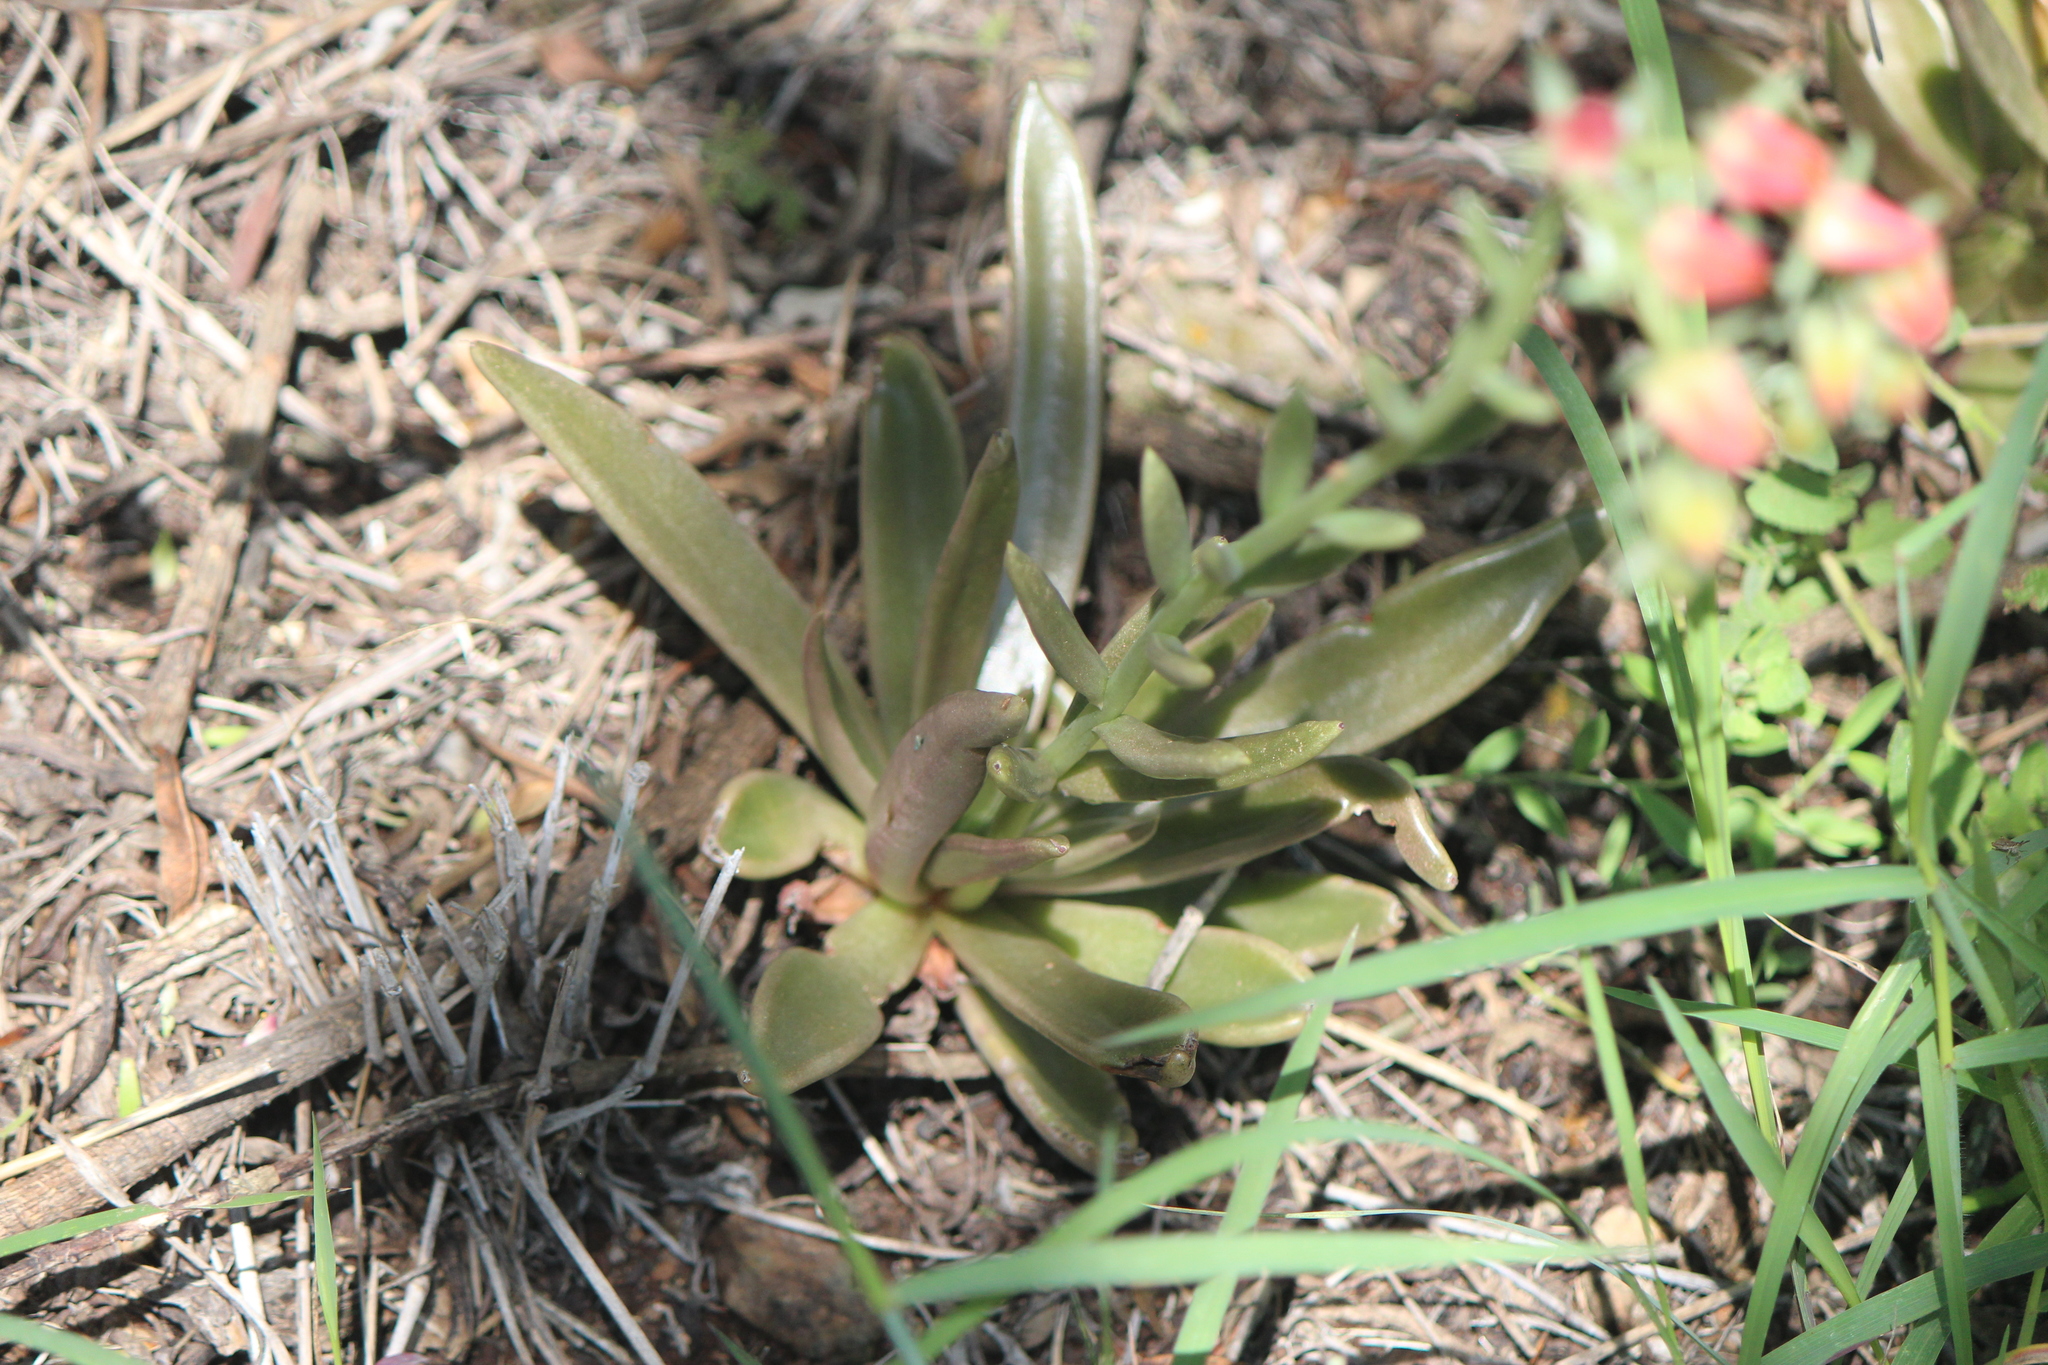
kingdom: Plantae
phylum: Tracheophyta
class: Magnoliopsida
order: Saxifragales
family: Crassulaceae
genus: Echeveria
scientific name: Echeveria bifida
